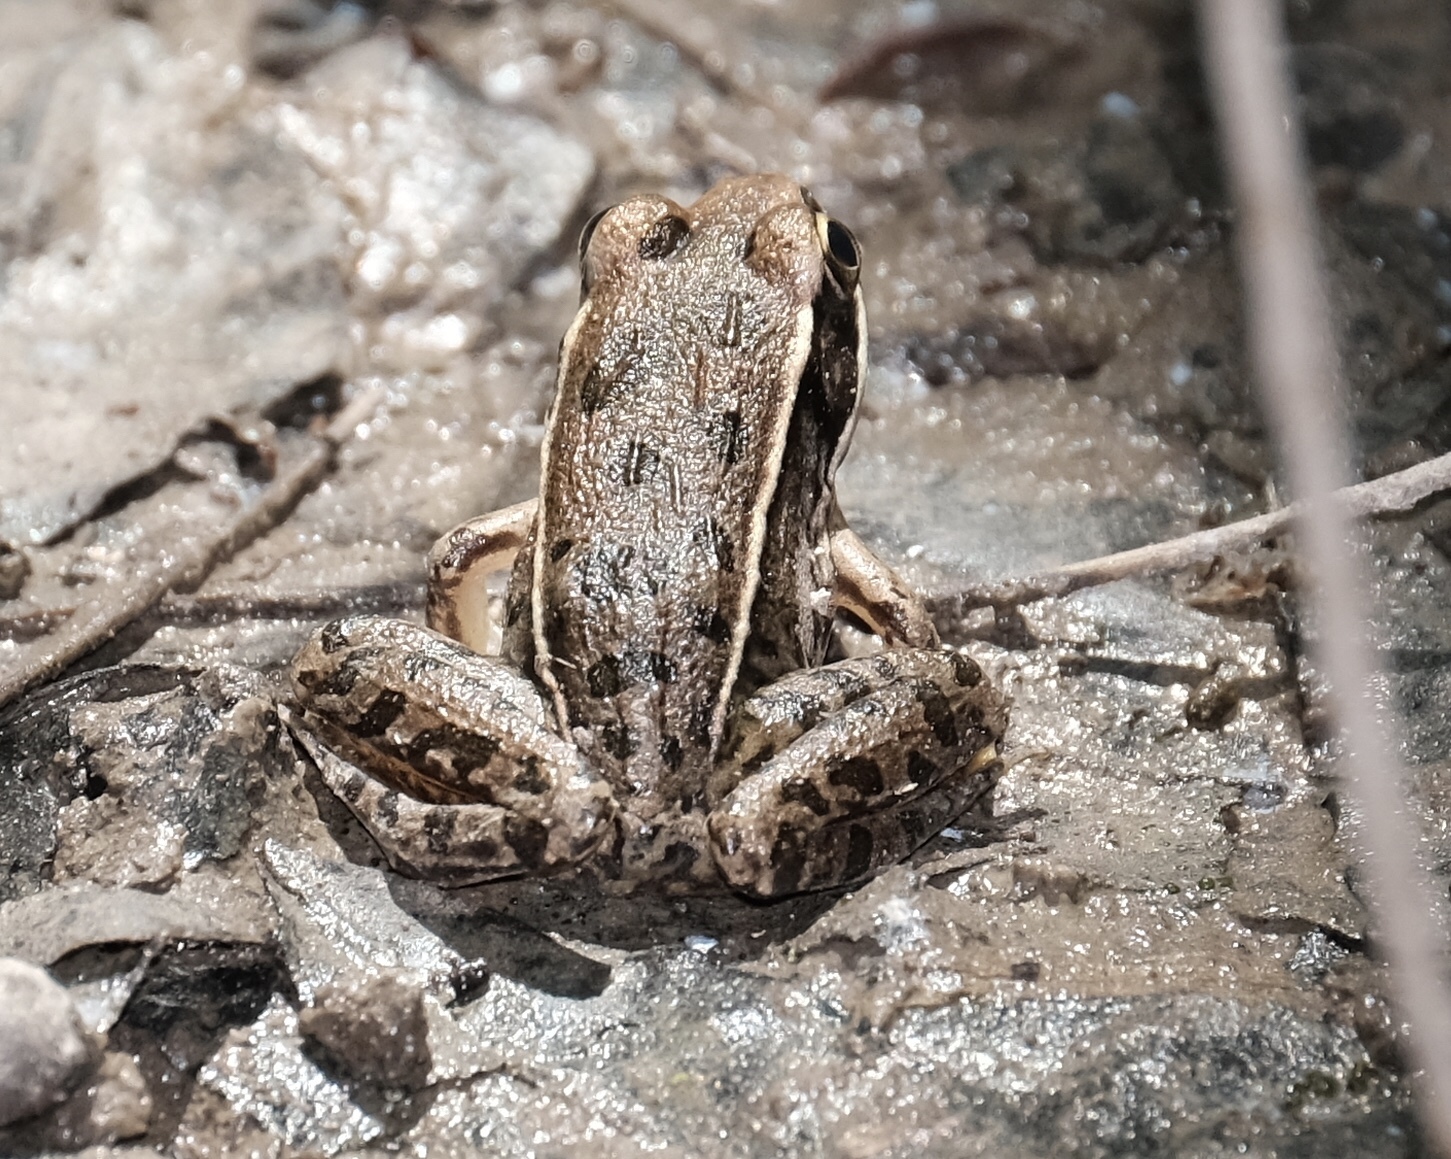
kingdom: Animalia
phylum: Chordata
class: Amphibia
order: Anura
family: Ranidae
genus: Lithobates
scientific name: Lithobates sphenocephalus
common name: Southern leopard frog
